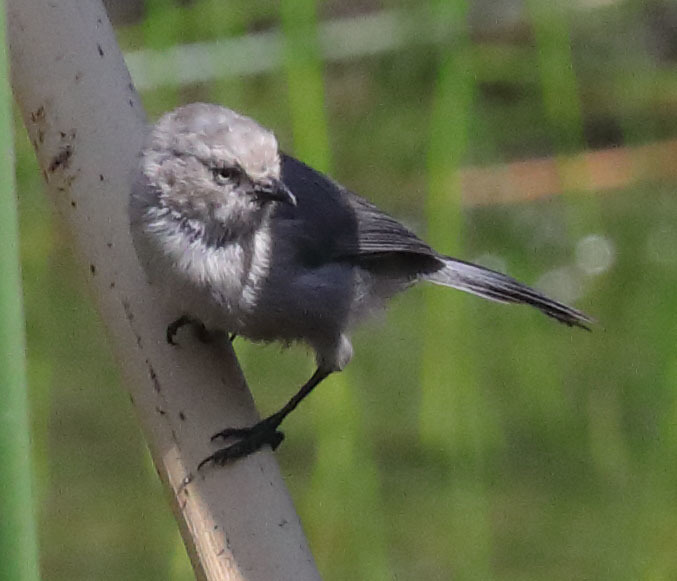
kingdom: Animalia
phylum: Chordata
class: Aves
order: Passeriformes
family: Aegithalidae
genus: Psaltriparus
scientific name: Psaltriparus minimus
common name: American bushtit
